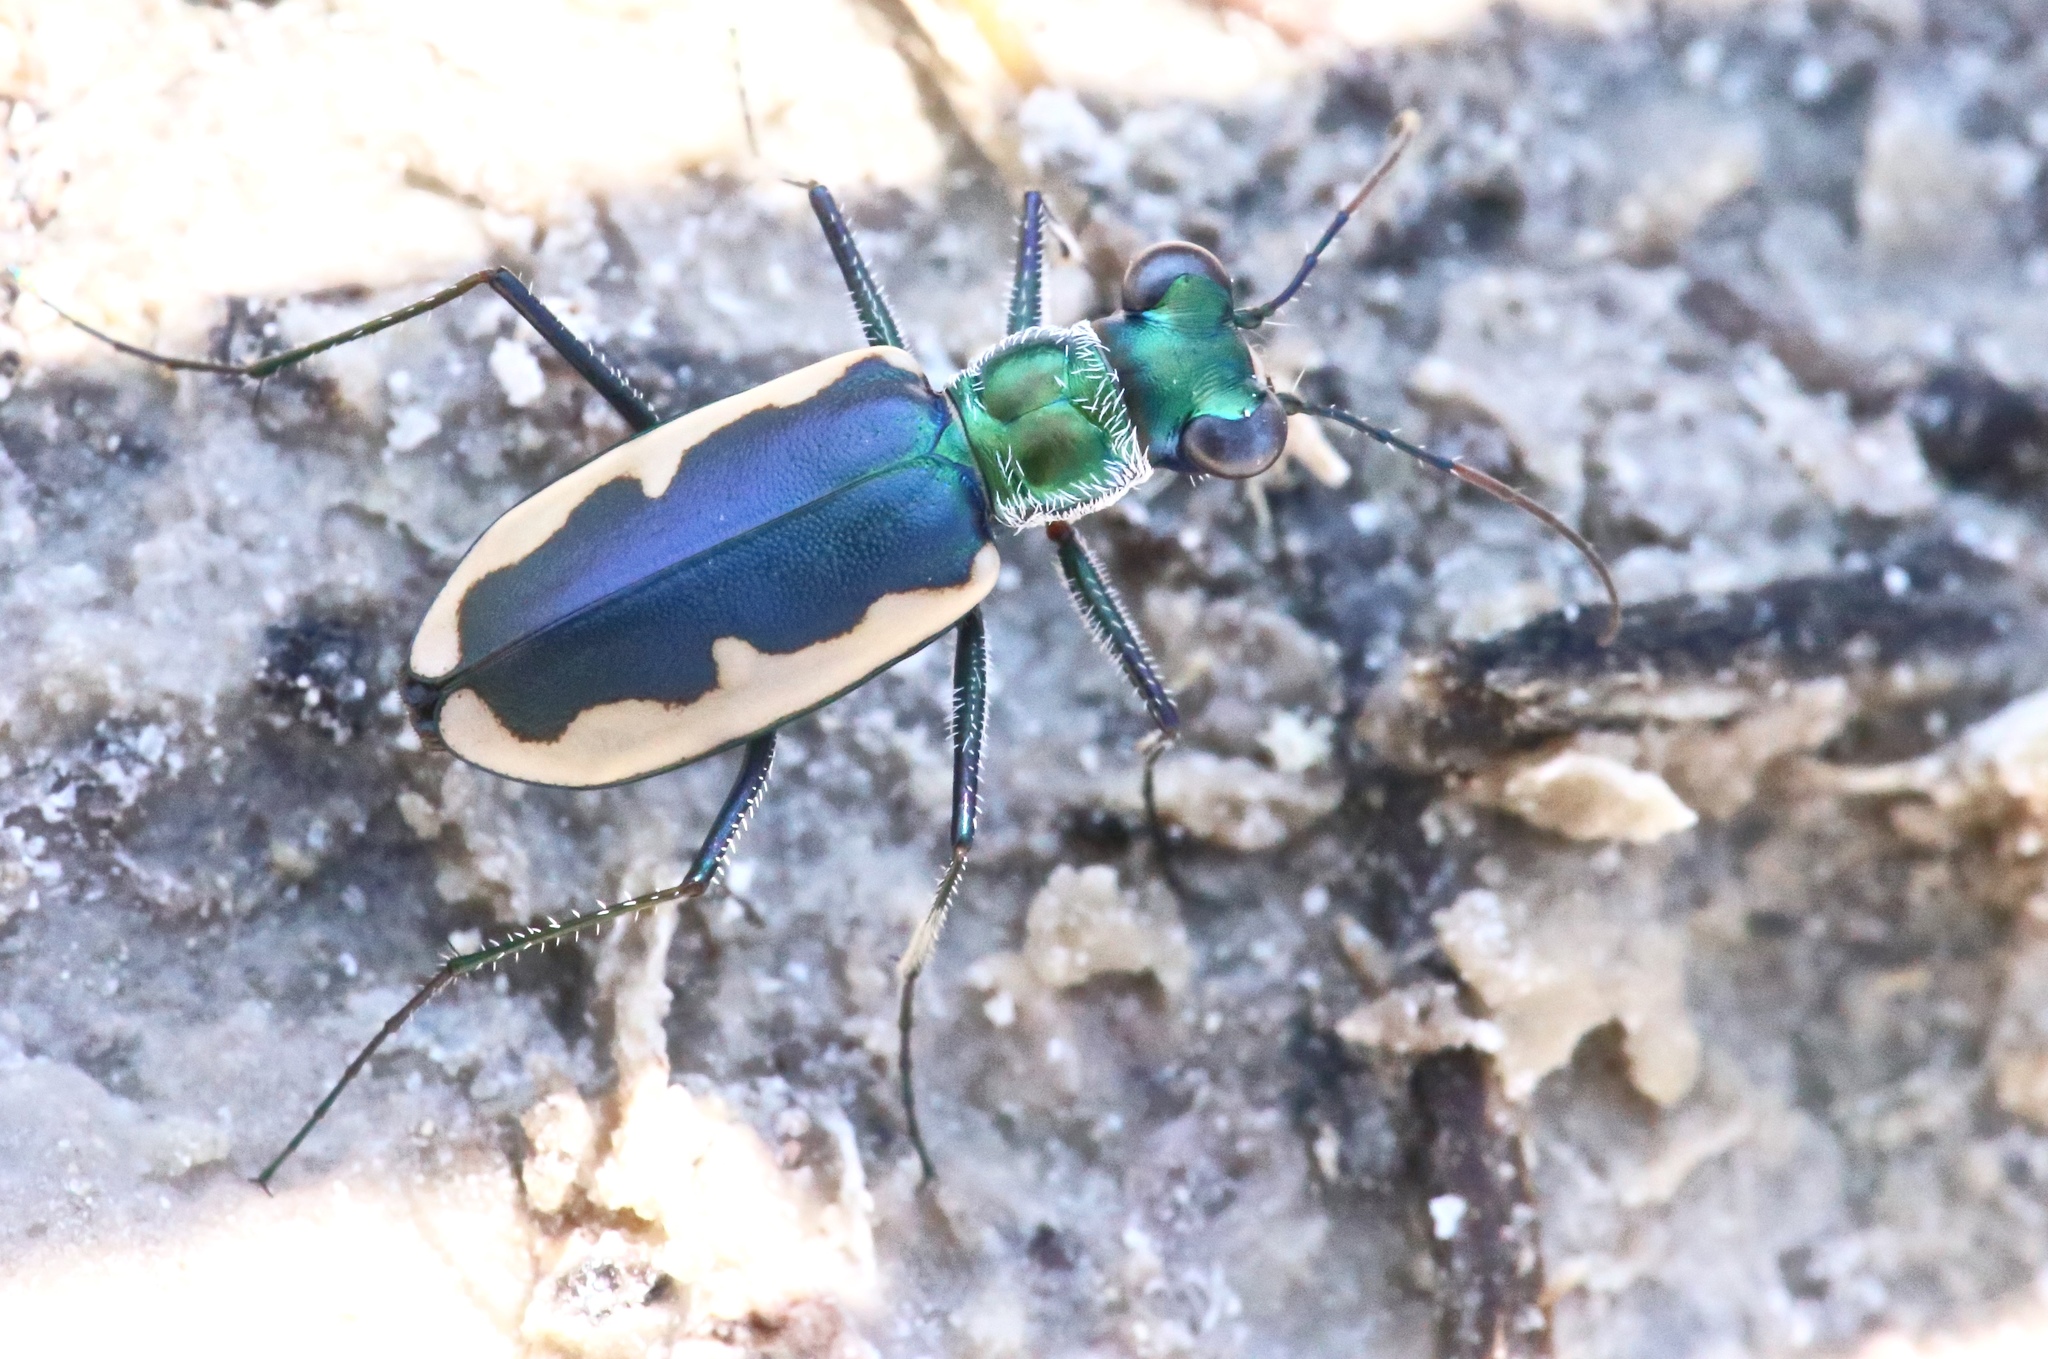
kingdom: Animalia
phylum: Arthropoda
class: Insecta
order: Coleoptera
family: Carabidae
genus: Eunota
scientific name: Eunota circumpicta
